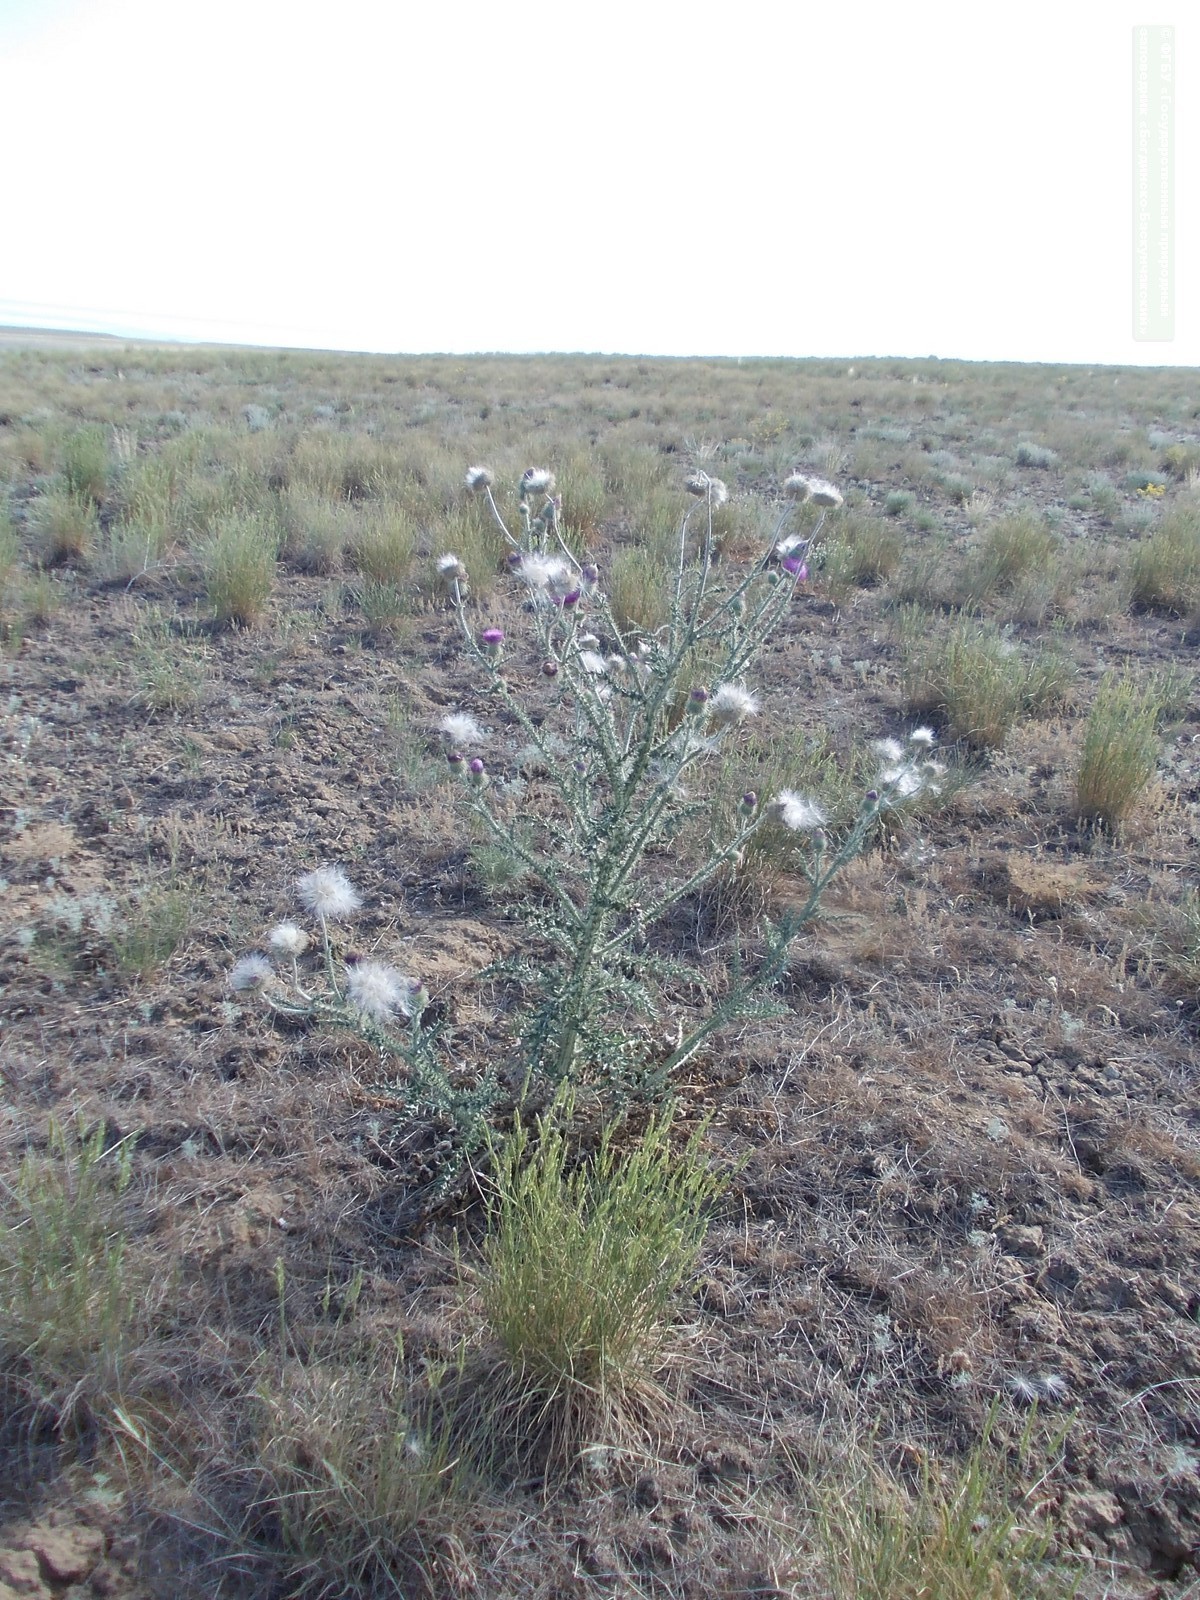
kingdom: Plantae
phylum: Tracheophyta
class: Magnoliopsida
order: Asterales
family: Asteraceae
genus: Carduus
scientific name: Carduus uncinatus
